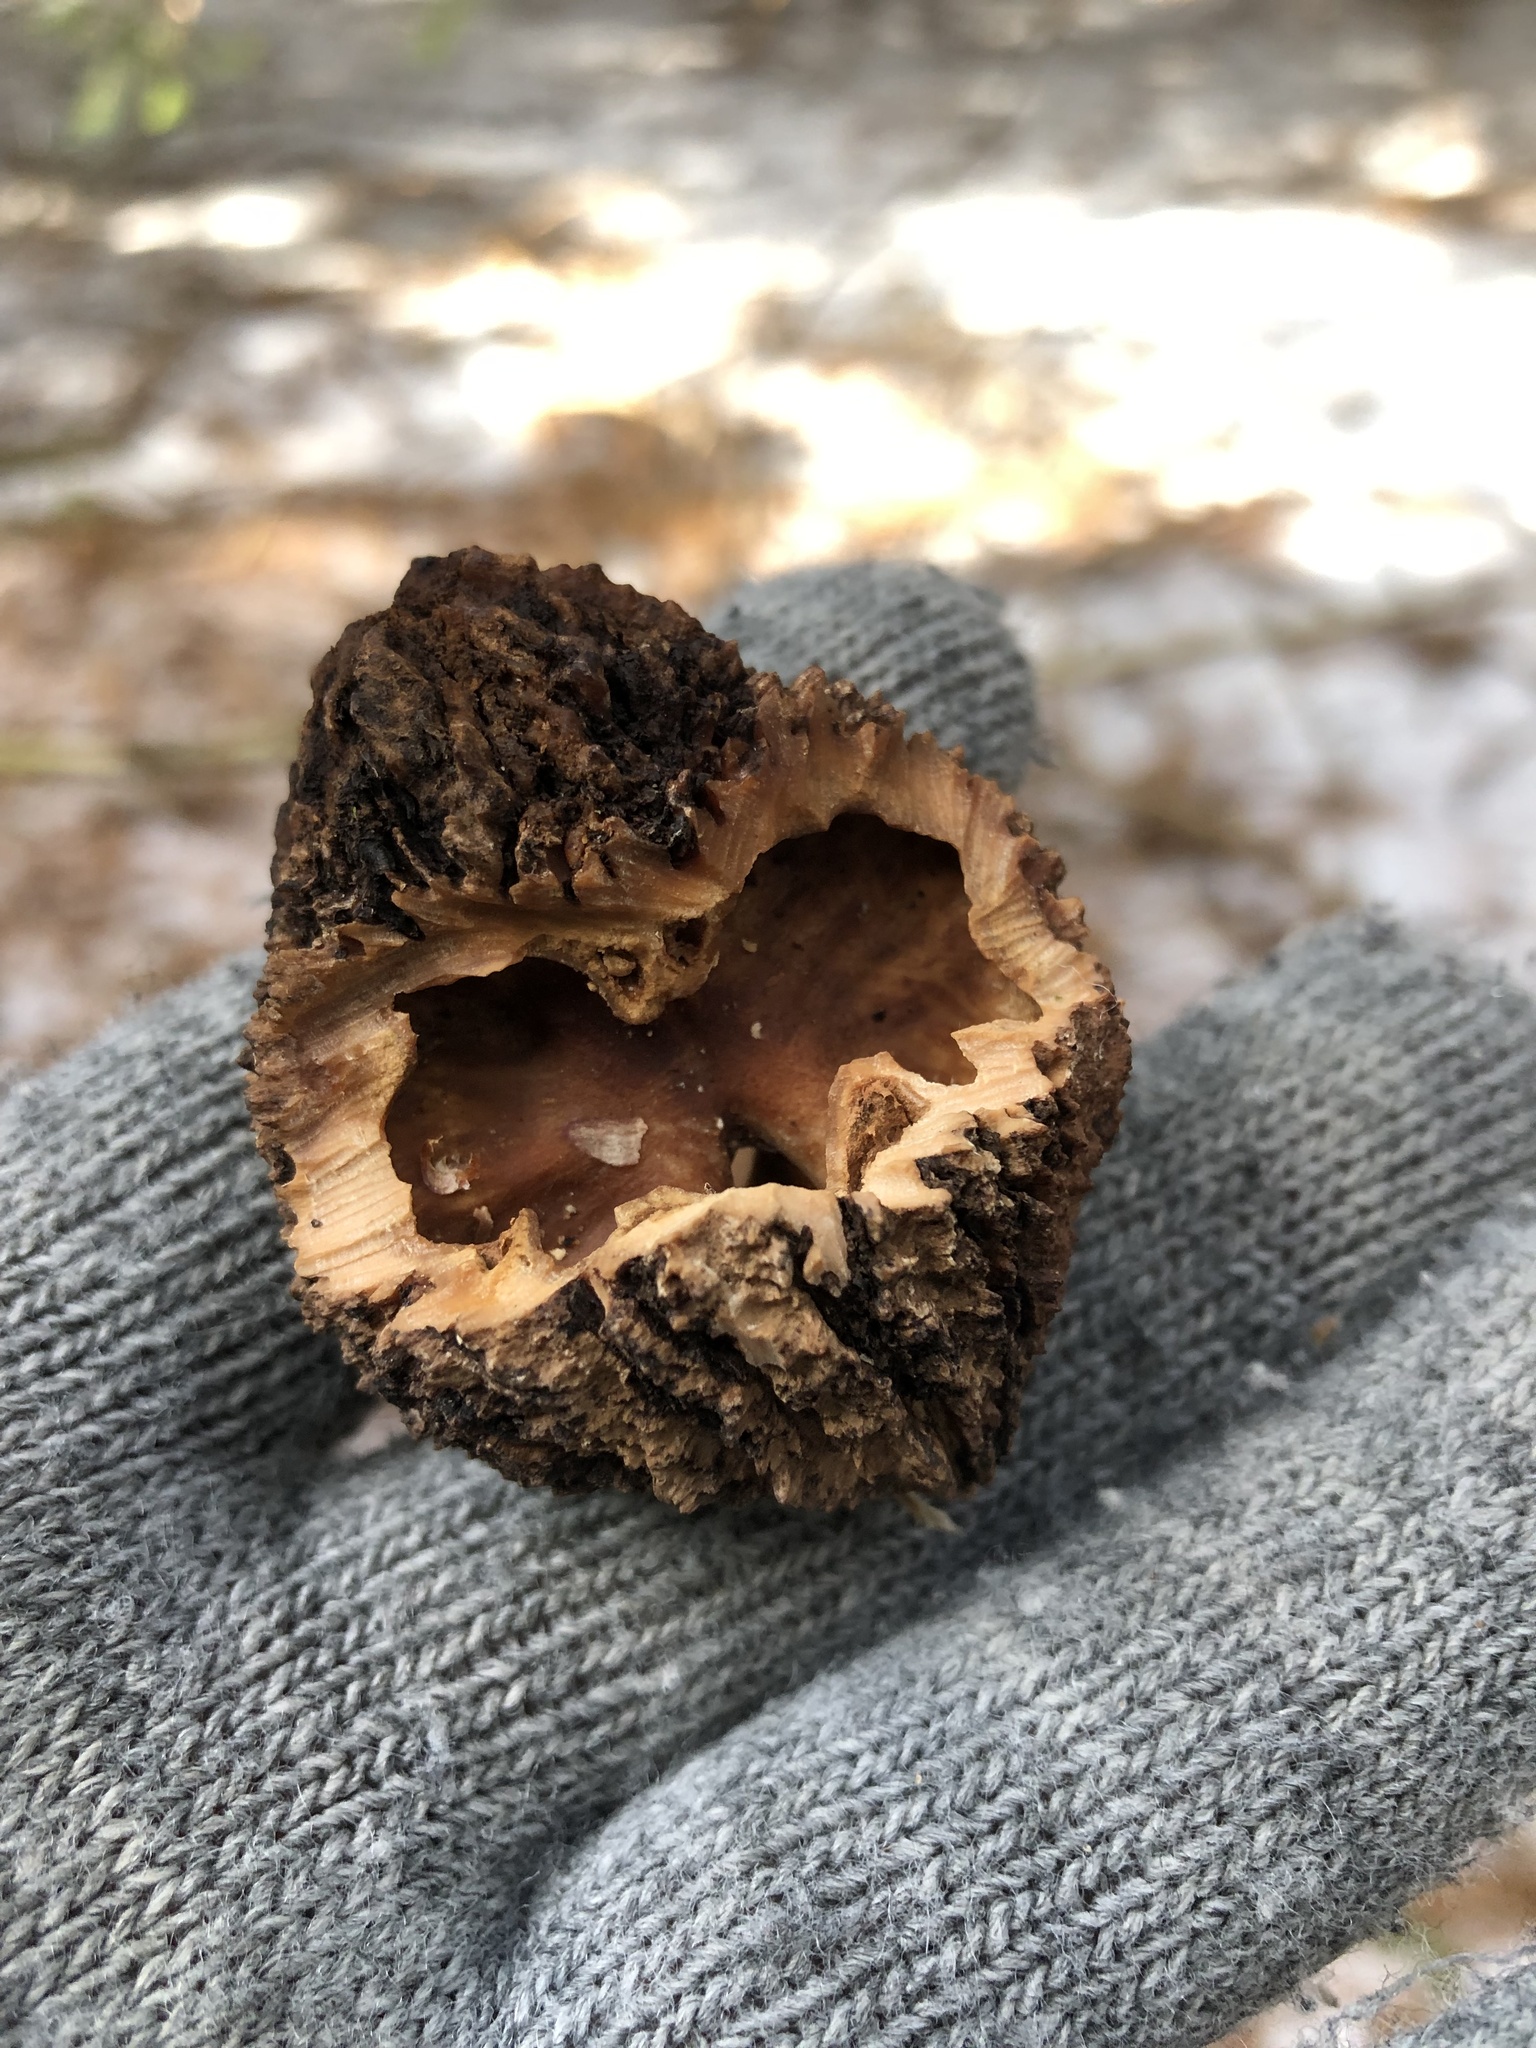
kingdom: Plantae
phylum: Tracheophyta
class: Magnoliopsida
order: Fagales
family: Juglandaceae
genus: Juglans
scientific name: Juglans nigra
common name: Black walnut
